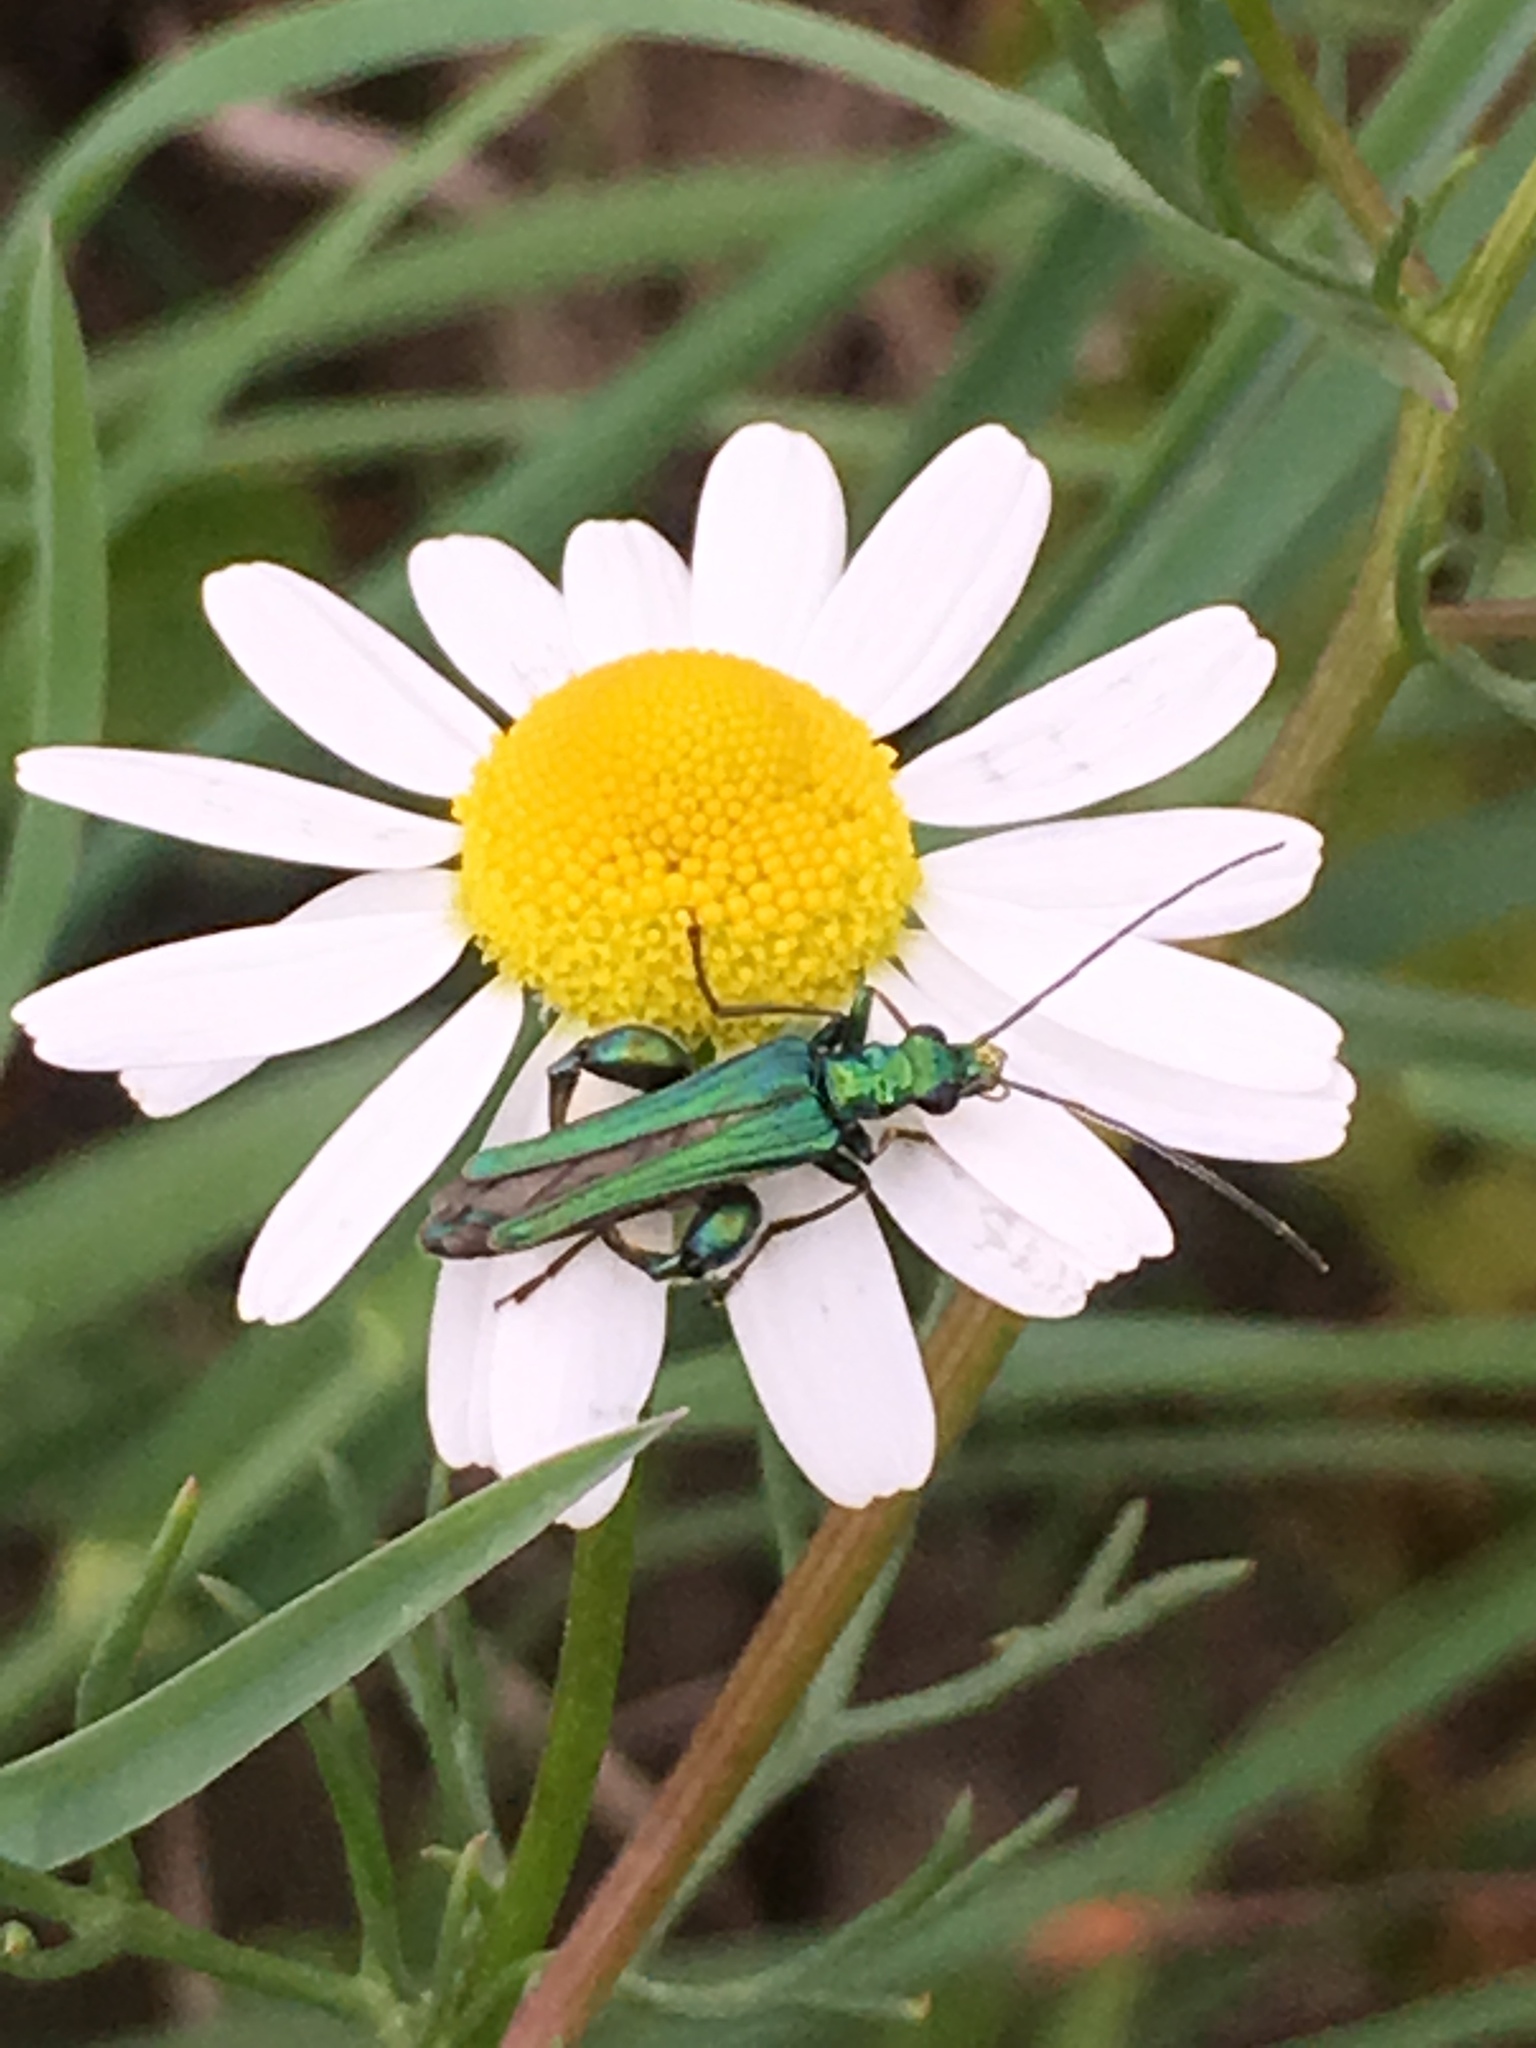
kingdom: Animalia
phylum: Arthropoda
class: Insecta
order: Coleoptera
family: Oedemeridae
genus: Oedemera
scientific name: Oedemera nobilis
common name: Swollen-thighed beetle
